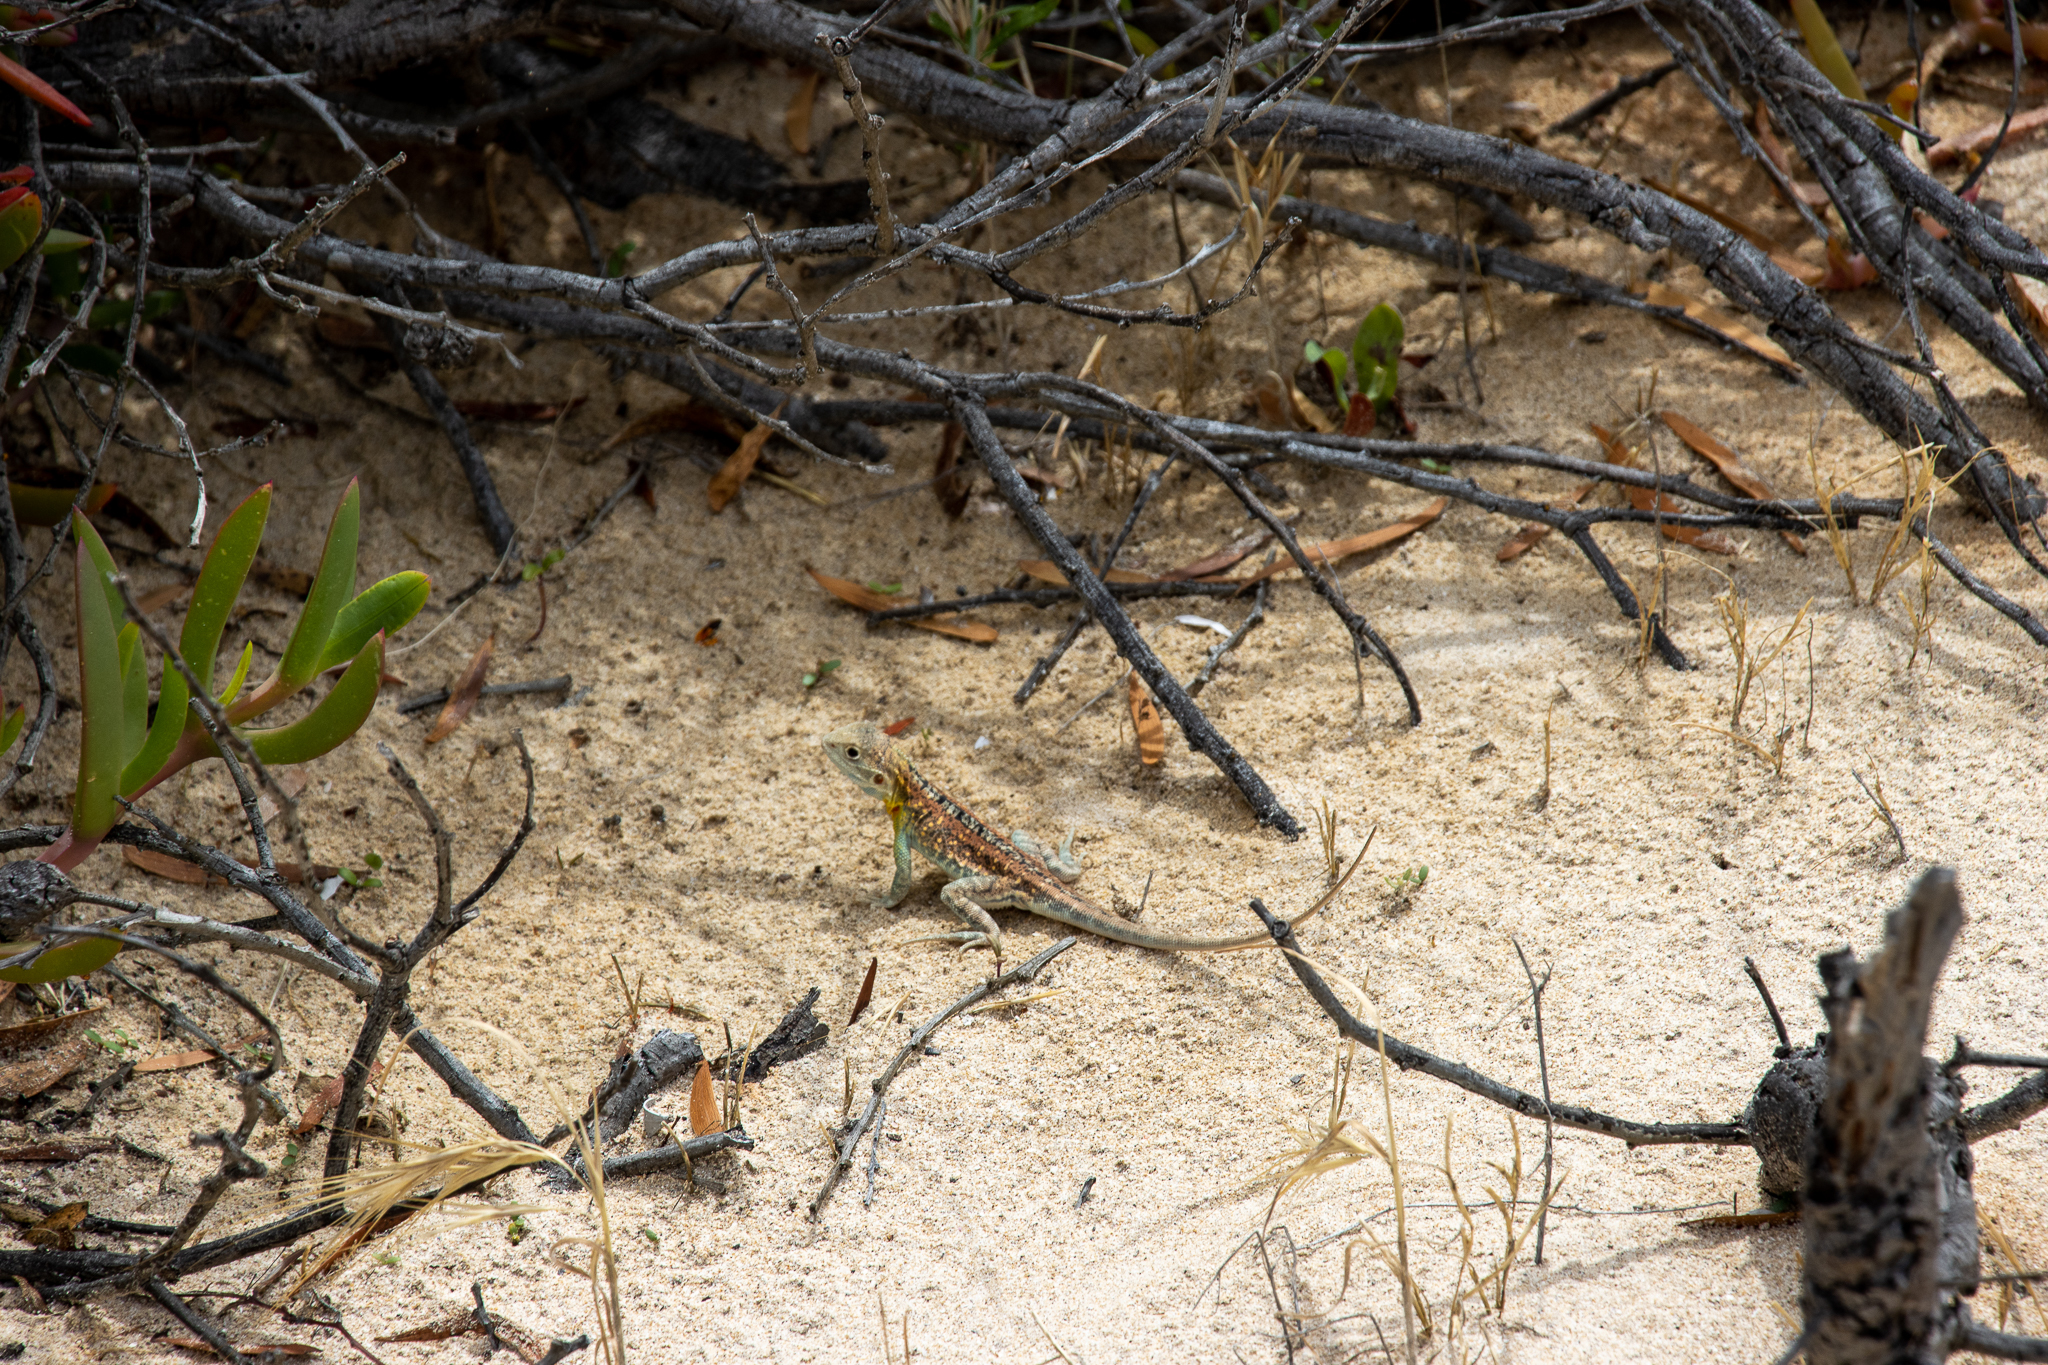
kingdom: Animalia
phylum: Chordata
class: Squamata
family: Agamidae
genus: Ctenophorus
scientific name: Ctenophorus pictus
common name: Painted dragon
